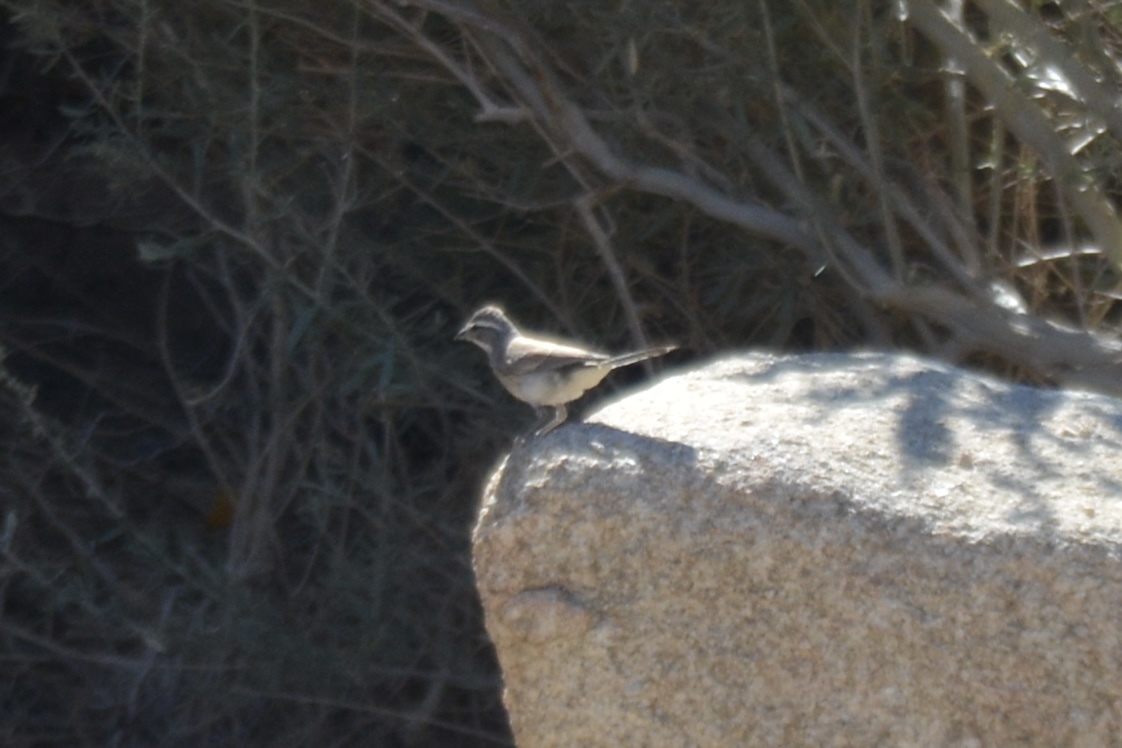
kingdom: Animalia
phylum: Chordata
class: Aves
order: Passeriformes
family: Passerellidae
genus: Amphispiza
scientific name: Amphispiza bilineata
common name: Black-throated sparrow
